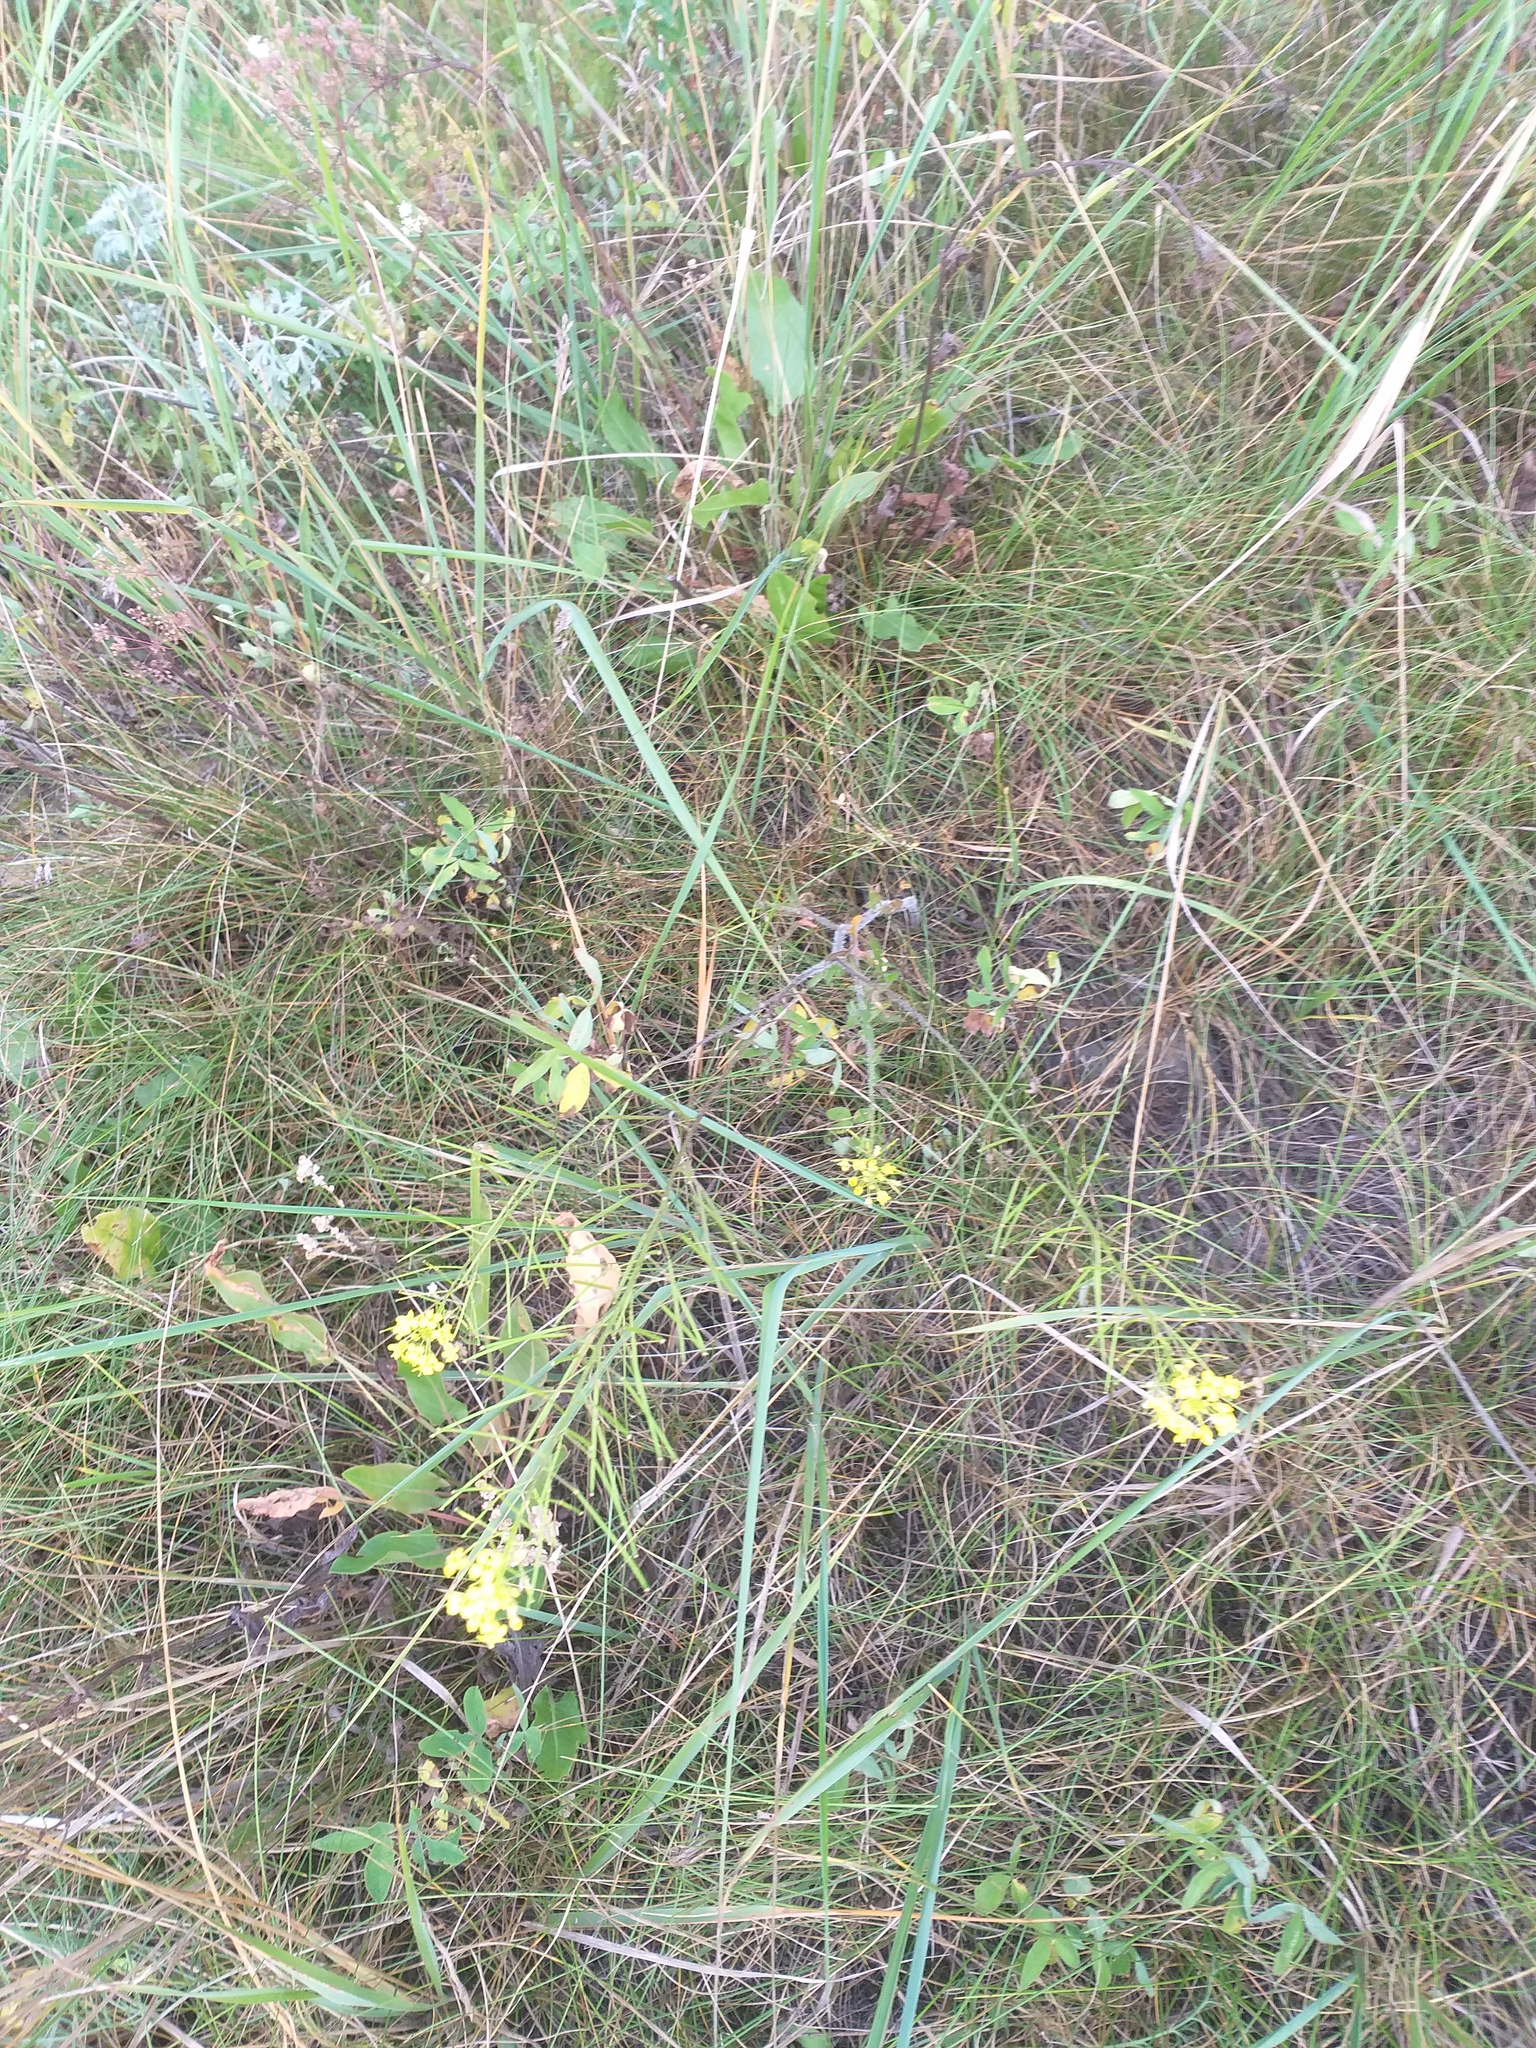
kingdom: Plantae
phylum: Tracheophyta
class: Magnoliopsida
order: Brassicales
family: Brassicaceae
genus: Sisymbrium
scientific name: Sisymbrium loeselii
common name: False london-rocket
